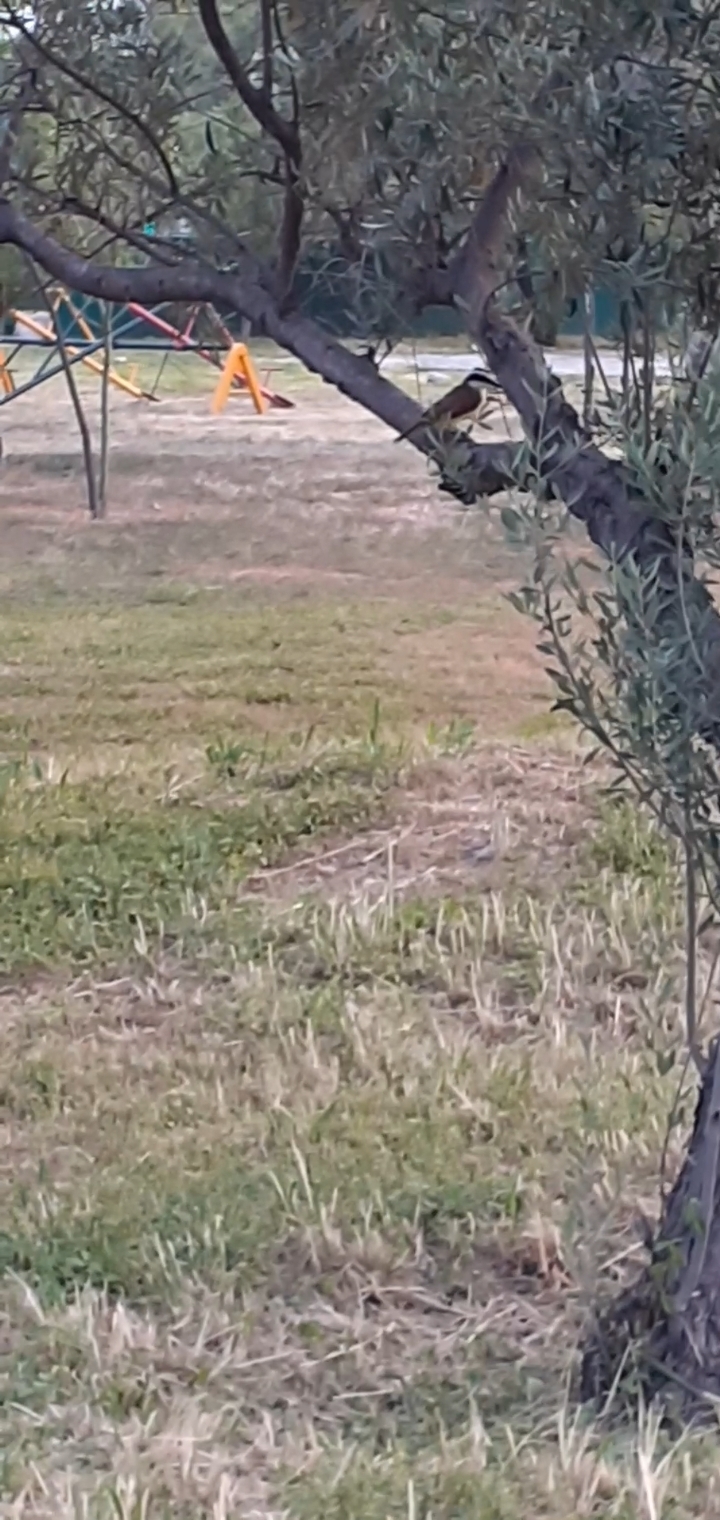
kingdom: Animalia
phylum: Chordata
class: Aves
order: Passeriformes
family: Tyrannidae
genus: Pitangus
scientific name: Pitangus sulphuratus
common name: Great kiskadee
